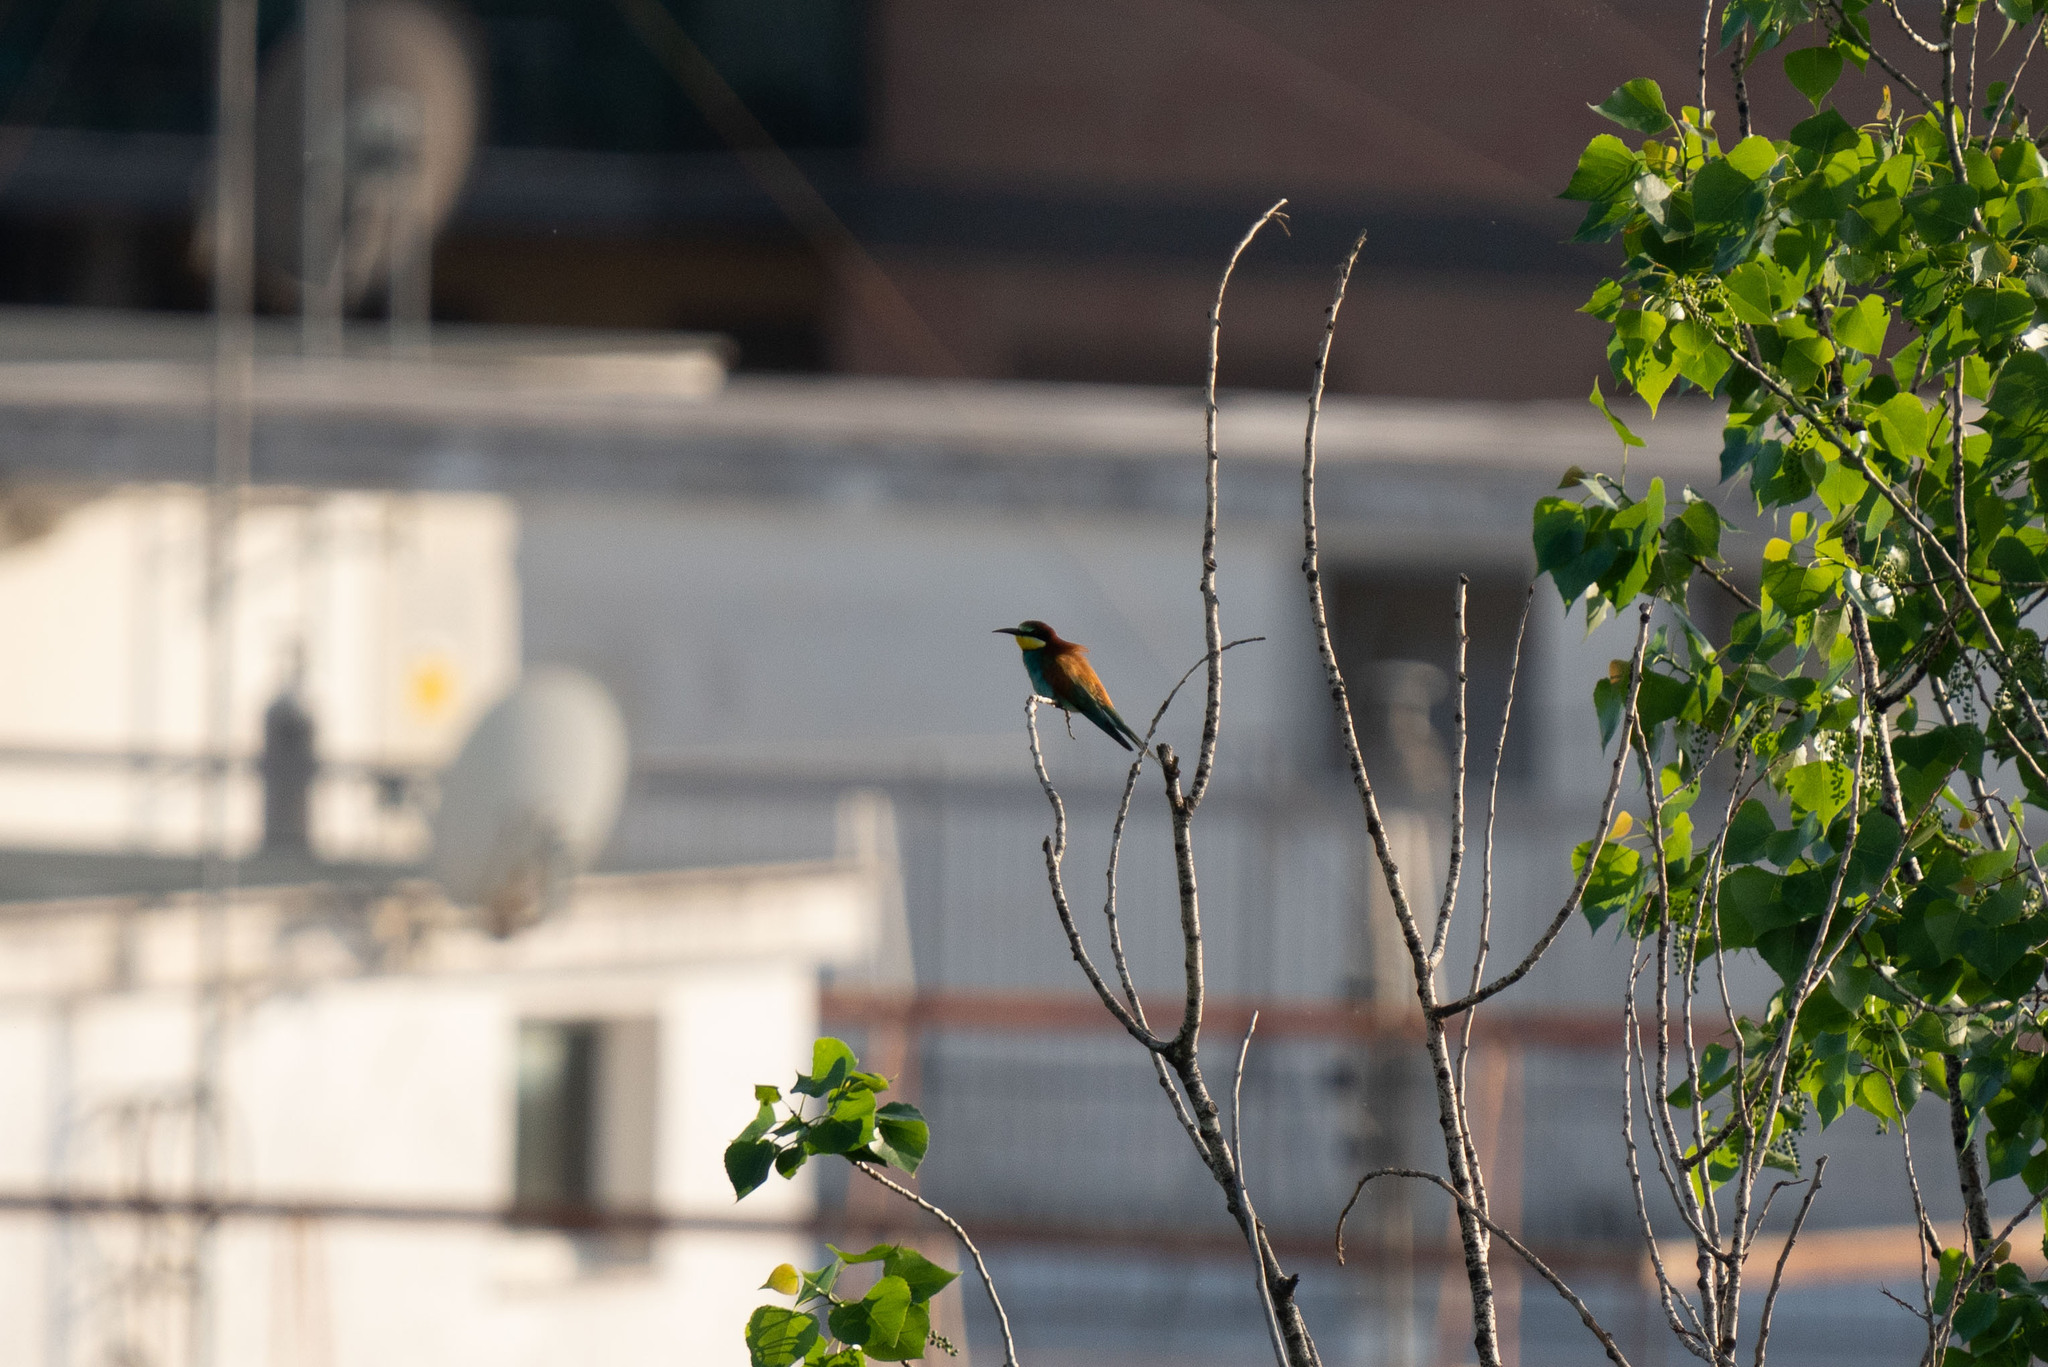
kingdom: Animalia
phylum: Chordata
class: Aves
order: Coraciiformes
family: Meropidae
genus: Merops
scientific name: Merops apiaster
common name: European bee-eater
